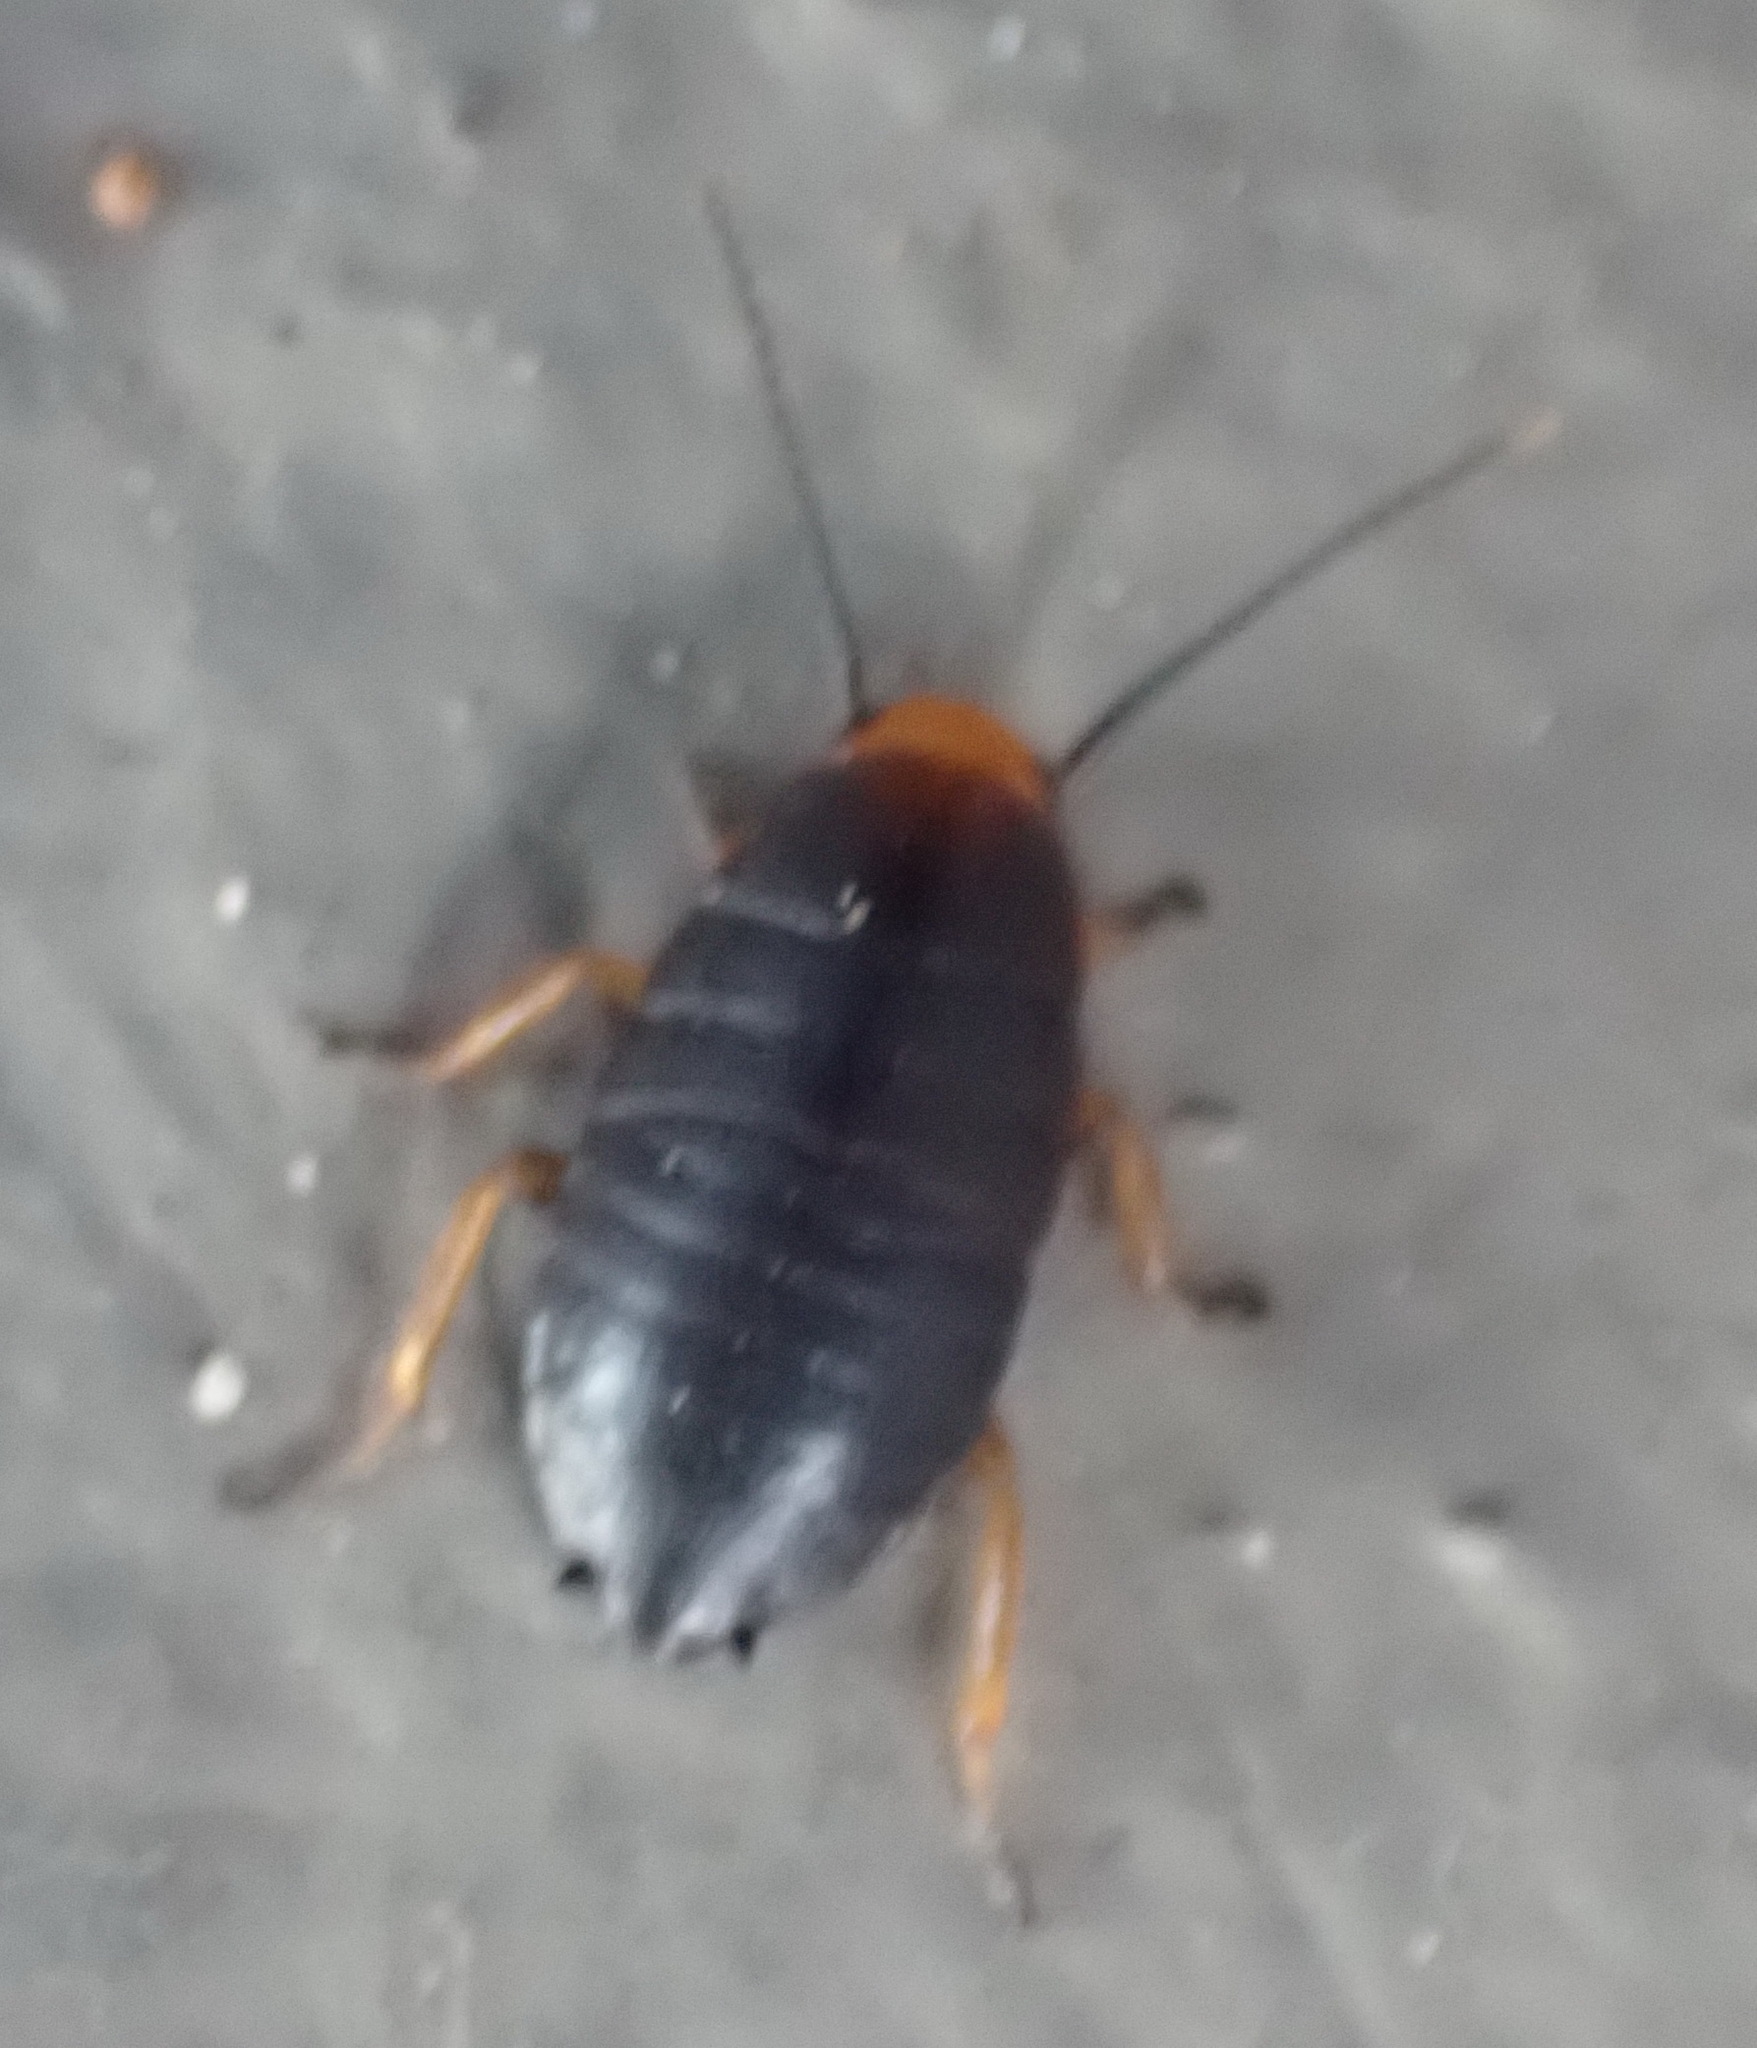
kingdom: Animalia
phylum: Arthropoda
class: Insecta
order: Blattodea
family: Blattidae
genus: Deropeltis
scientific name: Deropeltis erythrocephala
